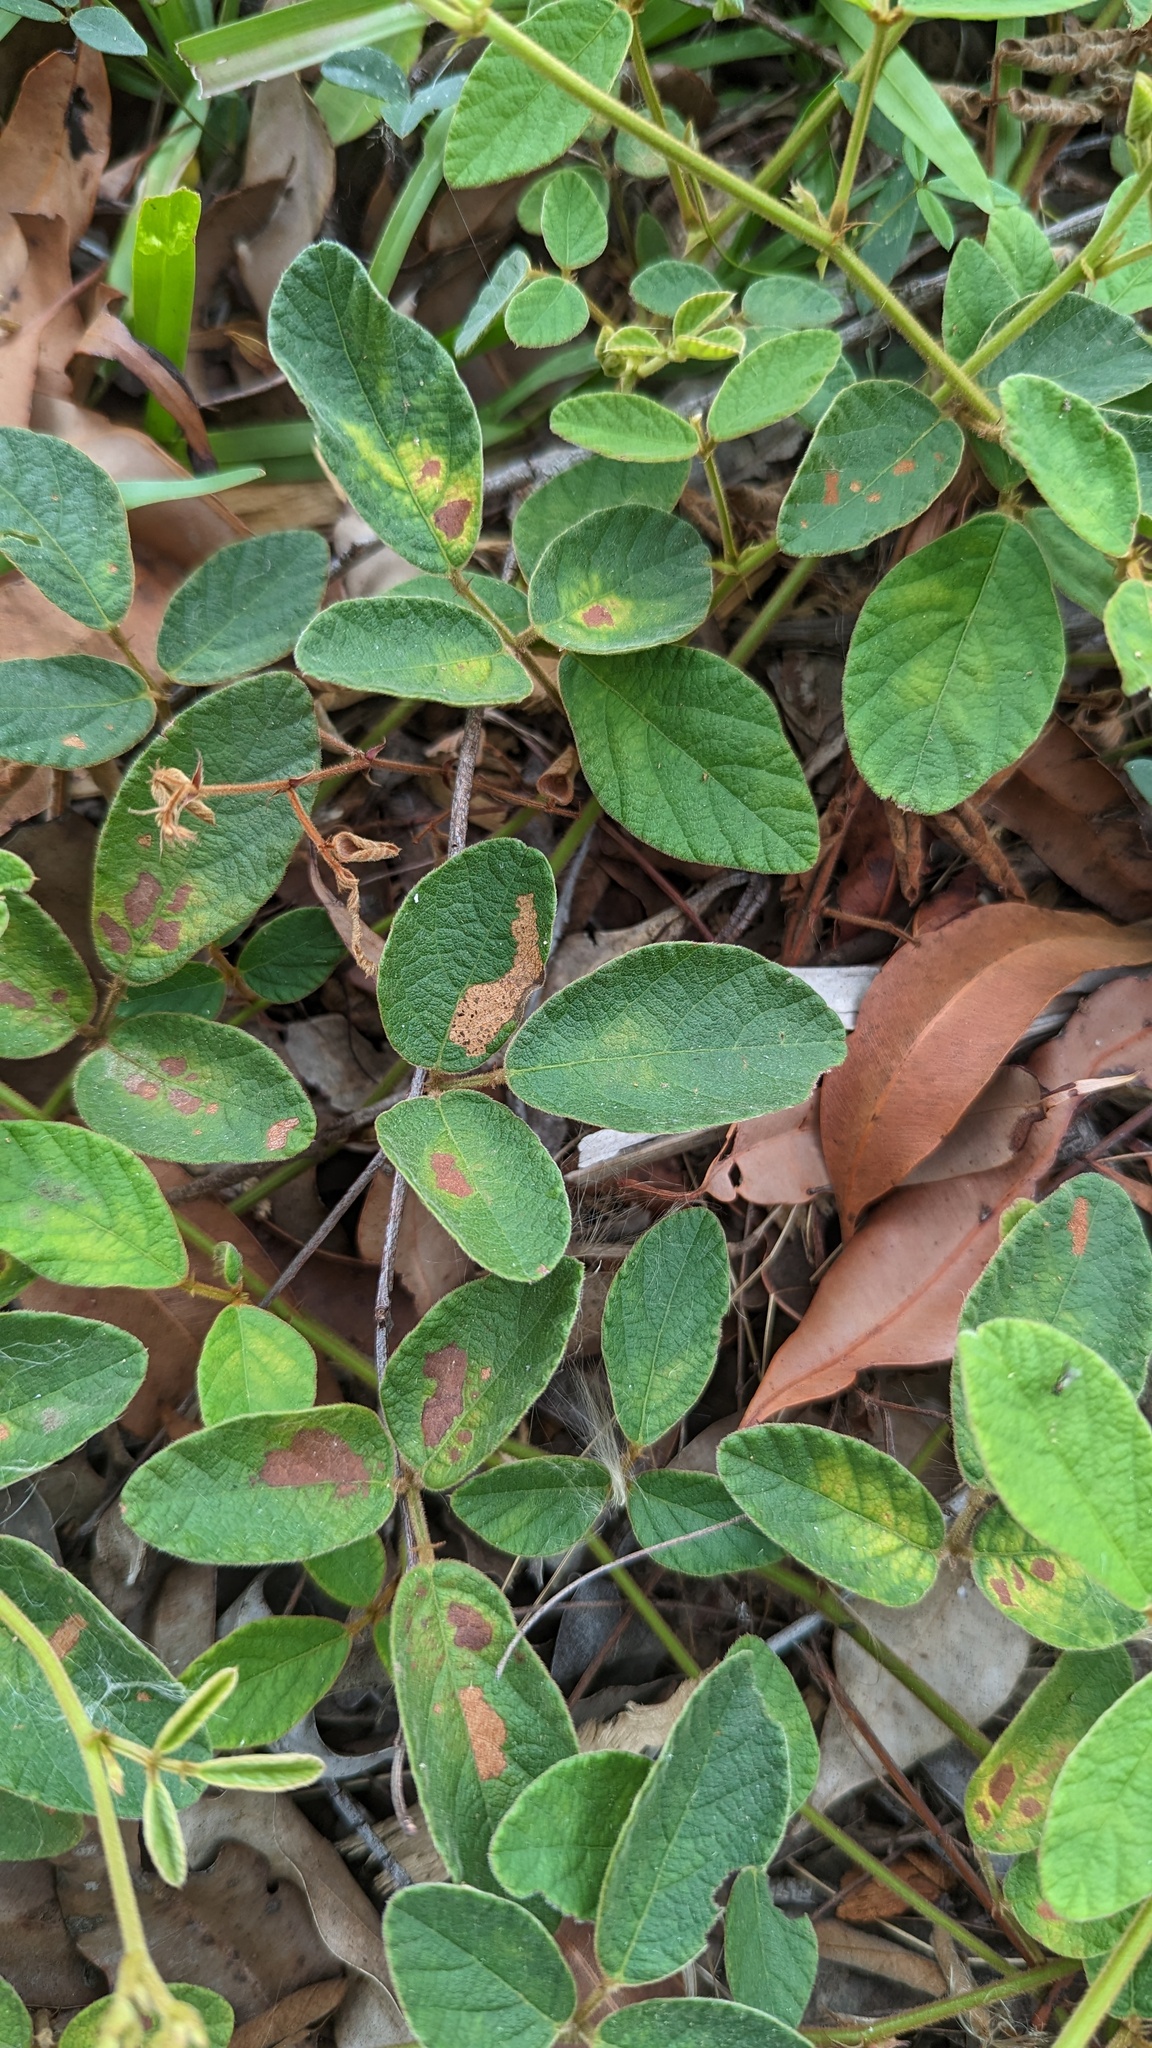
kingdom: Plantae
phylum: Tracheophyta
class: Magnoliopsida
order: Fabales
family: Fabaceae
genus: Maekawaea
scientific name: Maekawaea rhytidophylla
